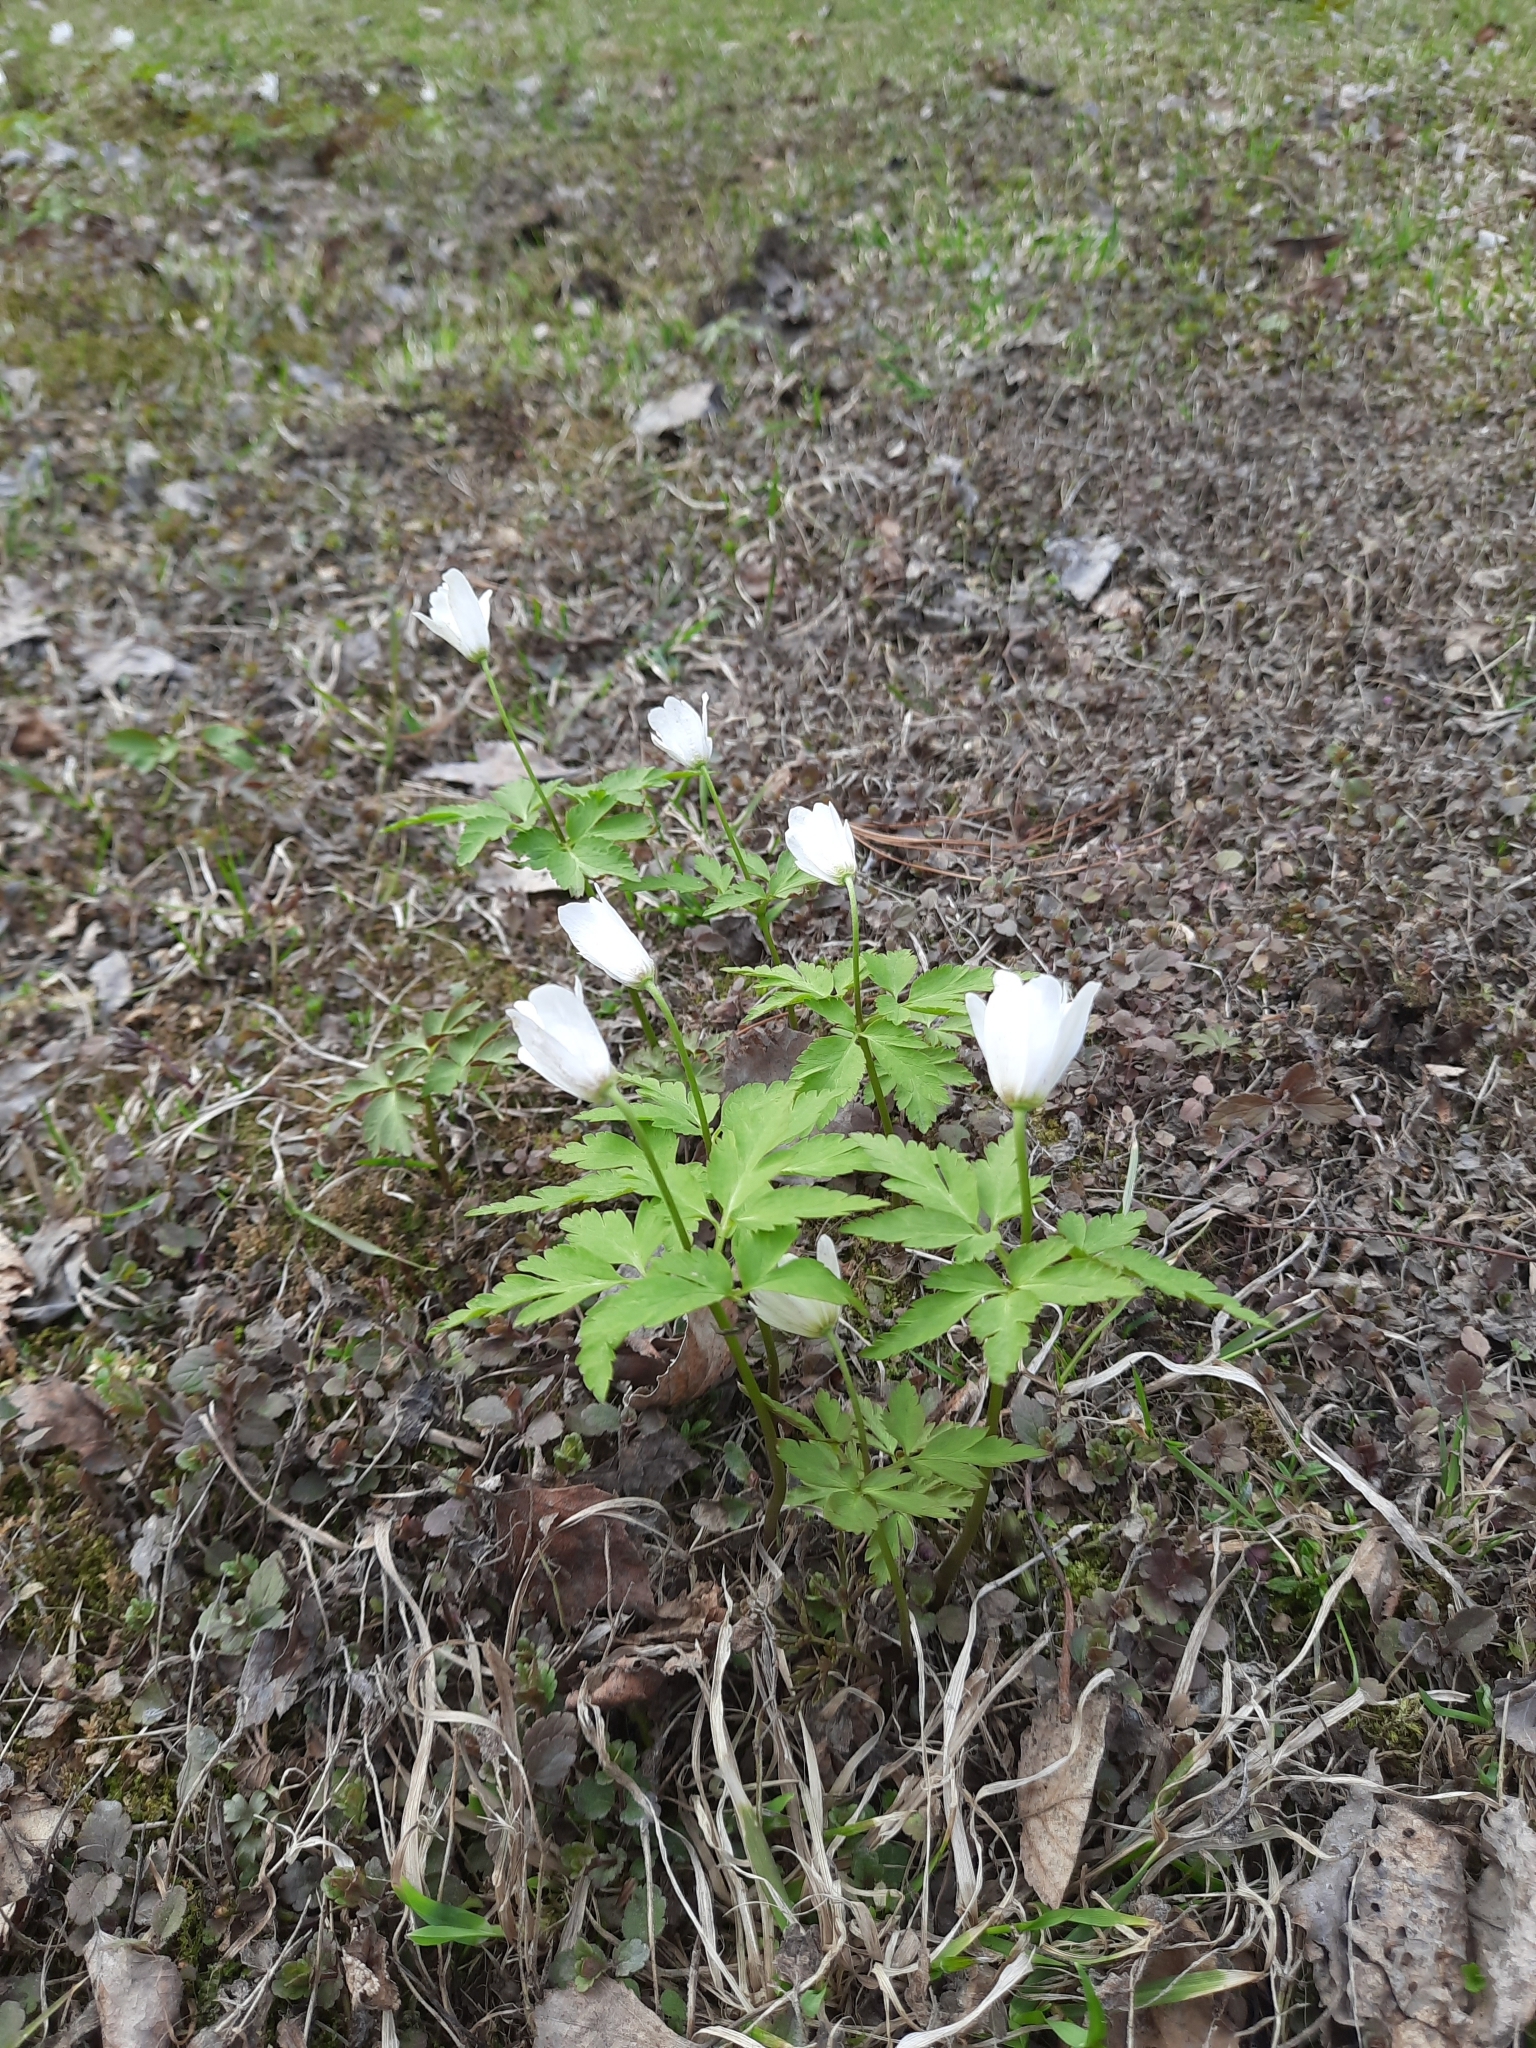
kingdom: Plantae
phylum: Tracheophyta
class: Magnoliopsida
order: Ranunculales
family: Ranunculaceae
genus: Anemone
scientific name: Anemone altaica
